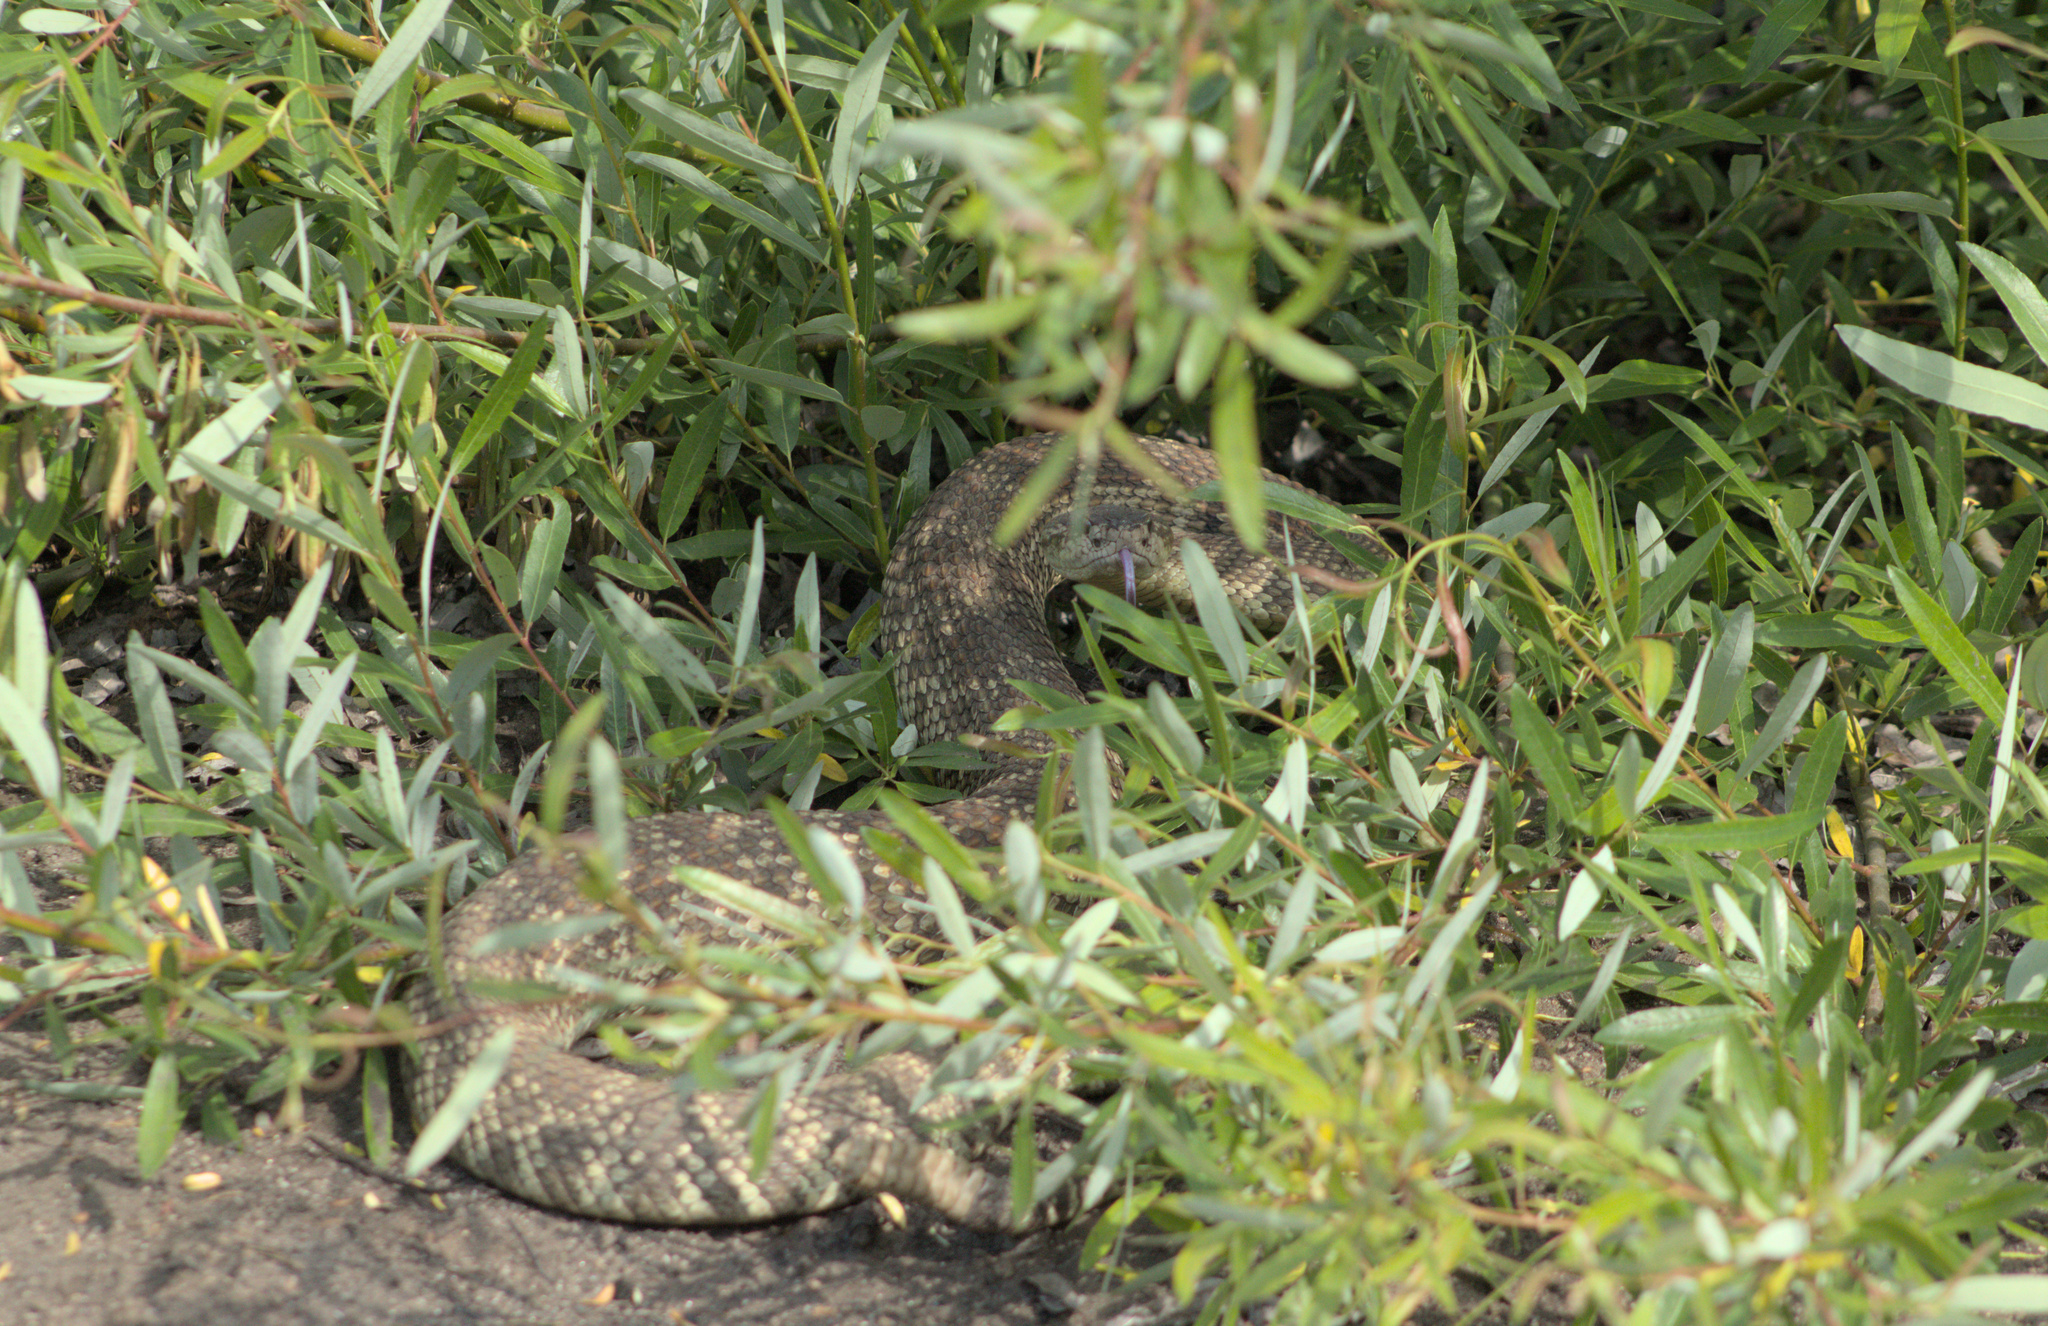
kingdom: Animalia
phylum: Chordata
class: Squamata
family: Viperidae
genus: Crotalus
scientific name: Crotalus oreganus
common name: Abyssus
